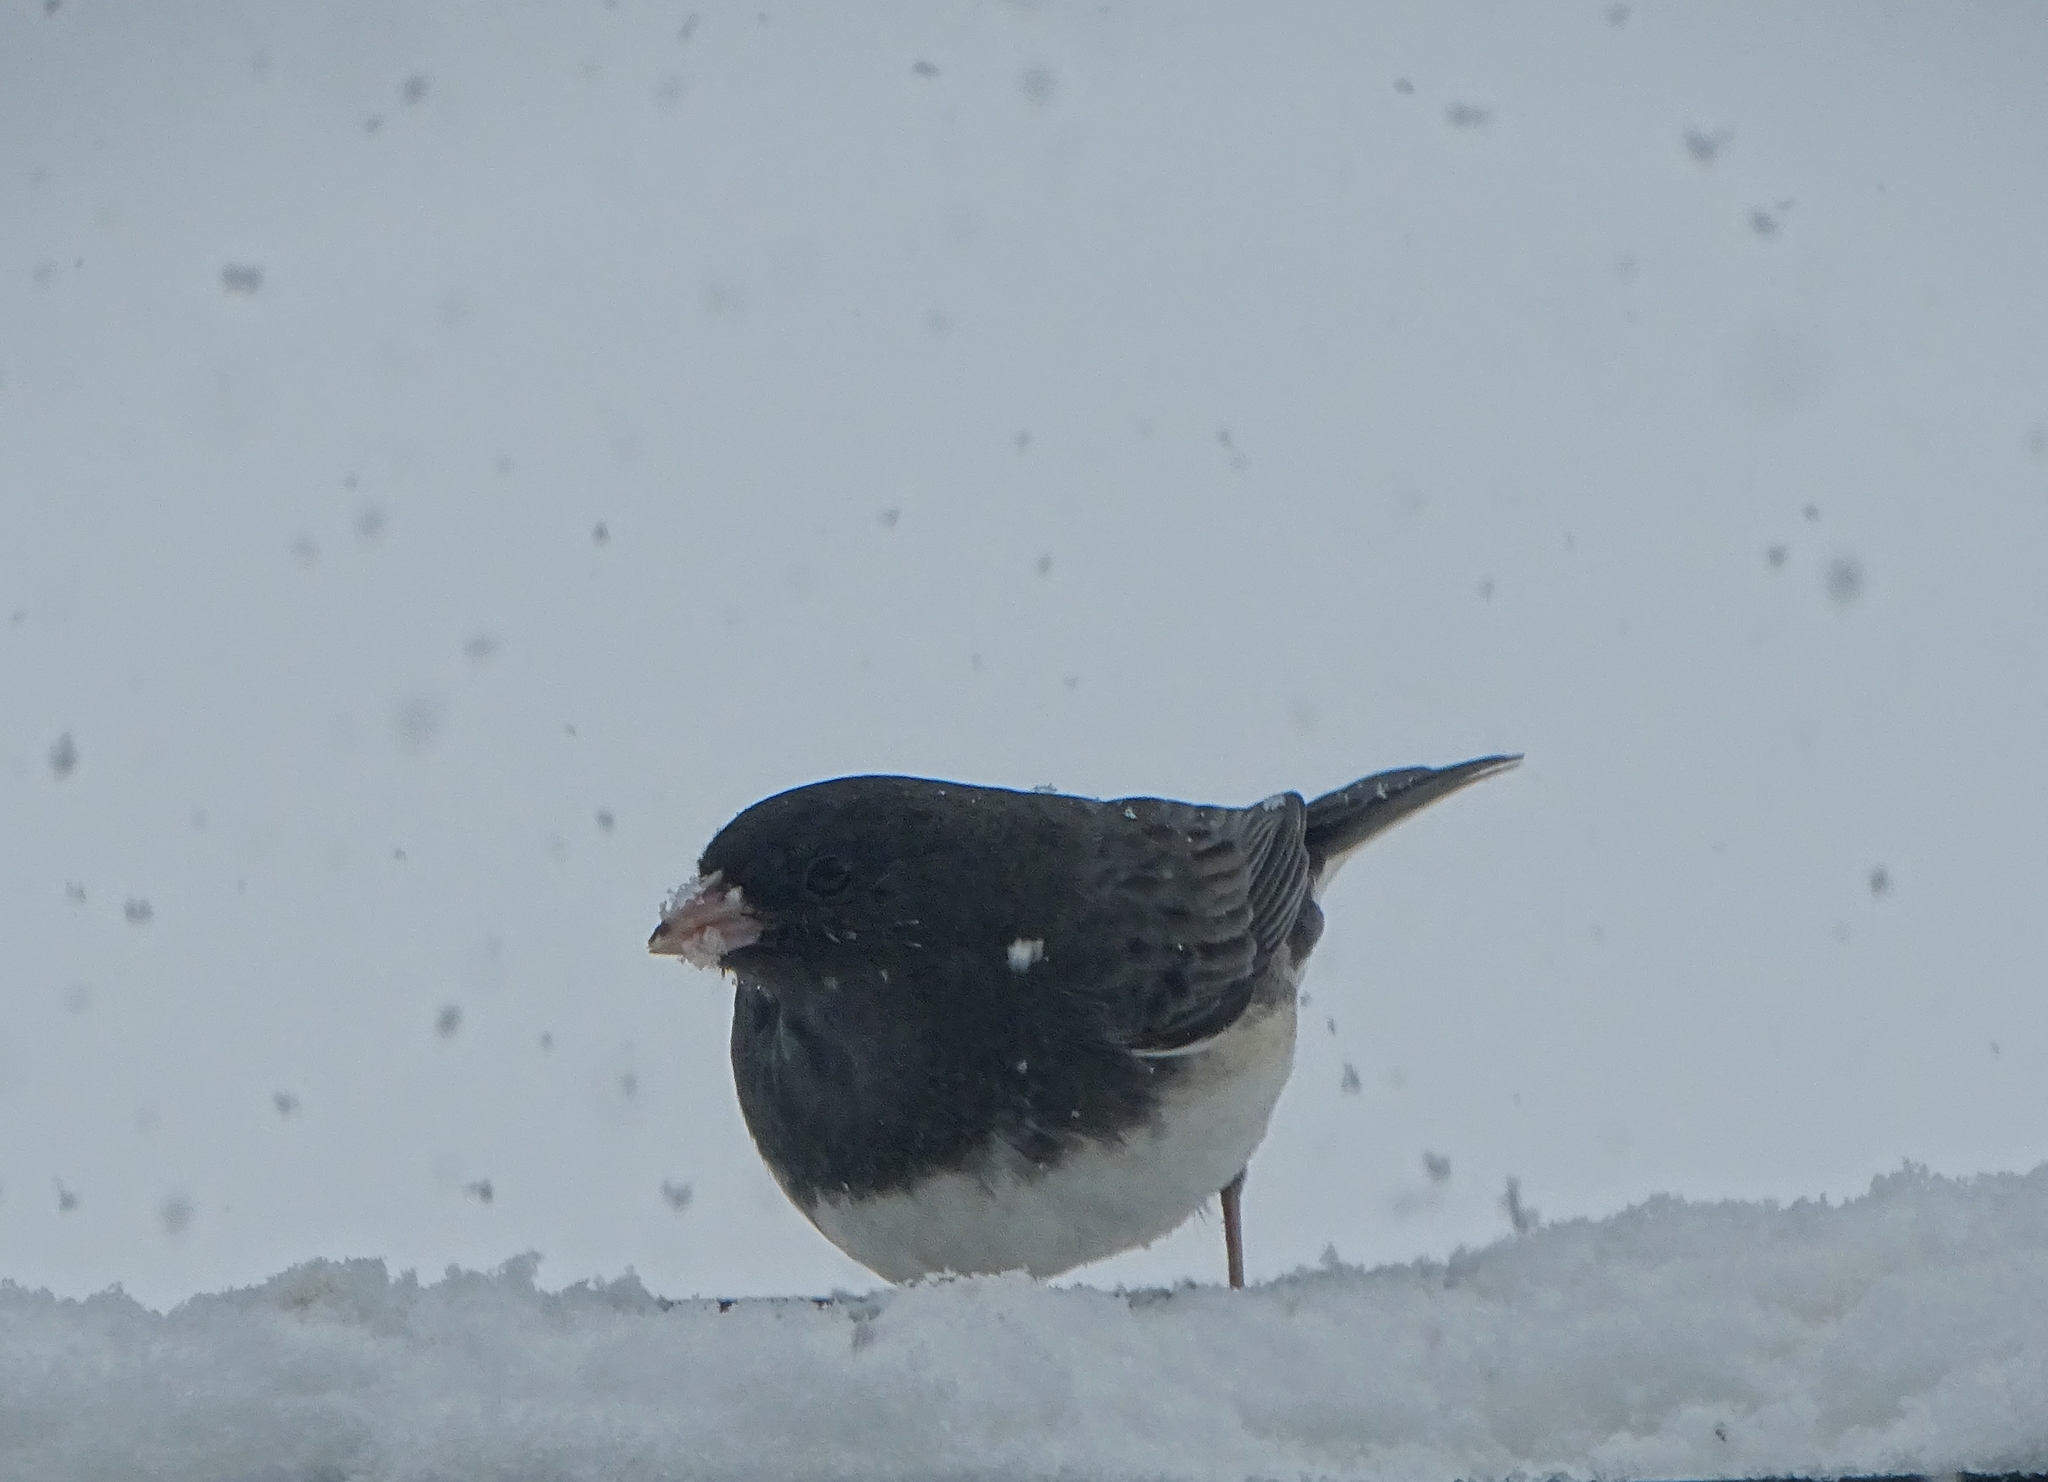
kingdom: Animalia
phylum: Chordata
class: Aves
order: Passeriformes
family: Passerellidae
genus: Junco
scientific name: Junco hyemalis
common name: Dark-eyed junco
